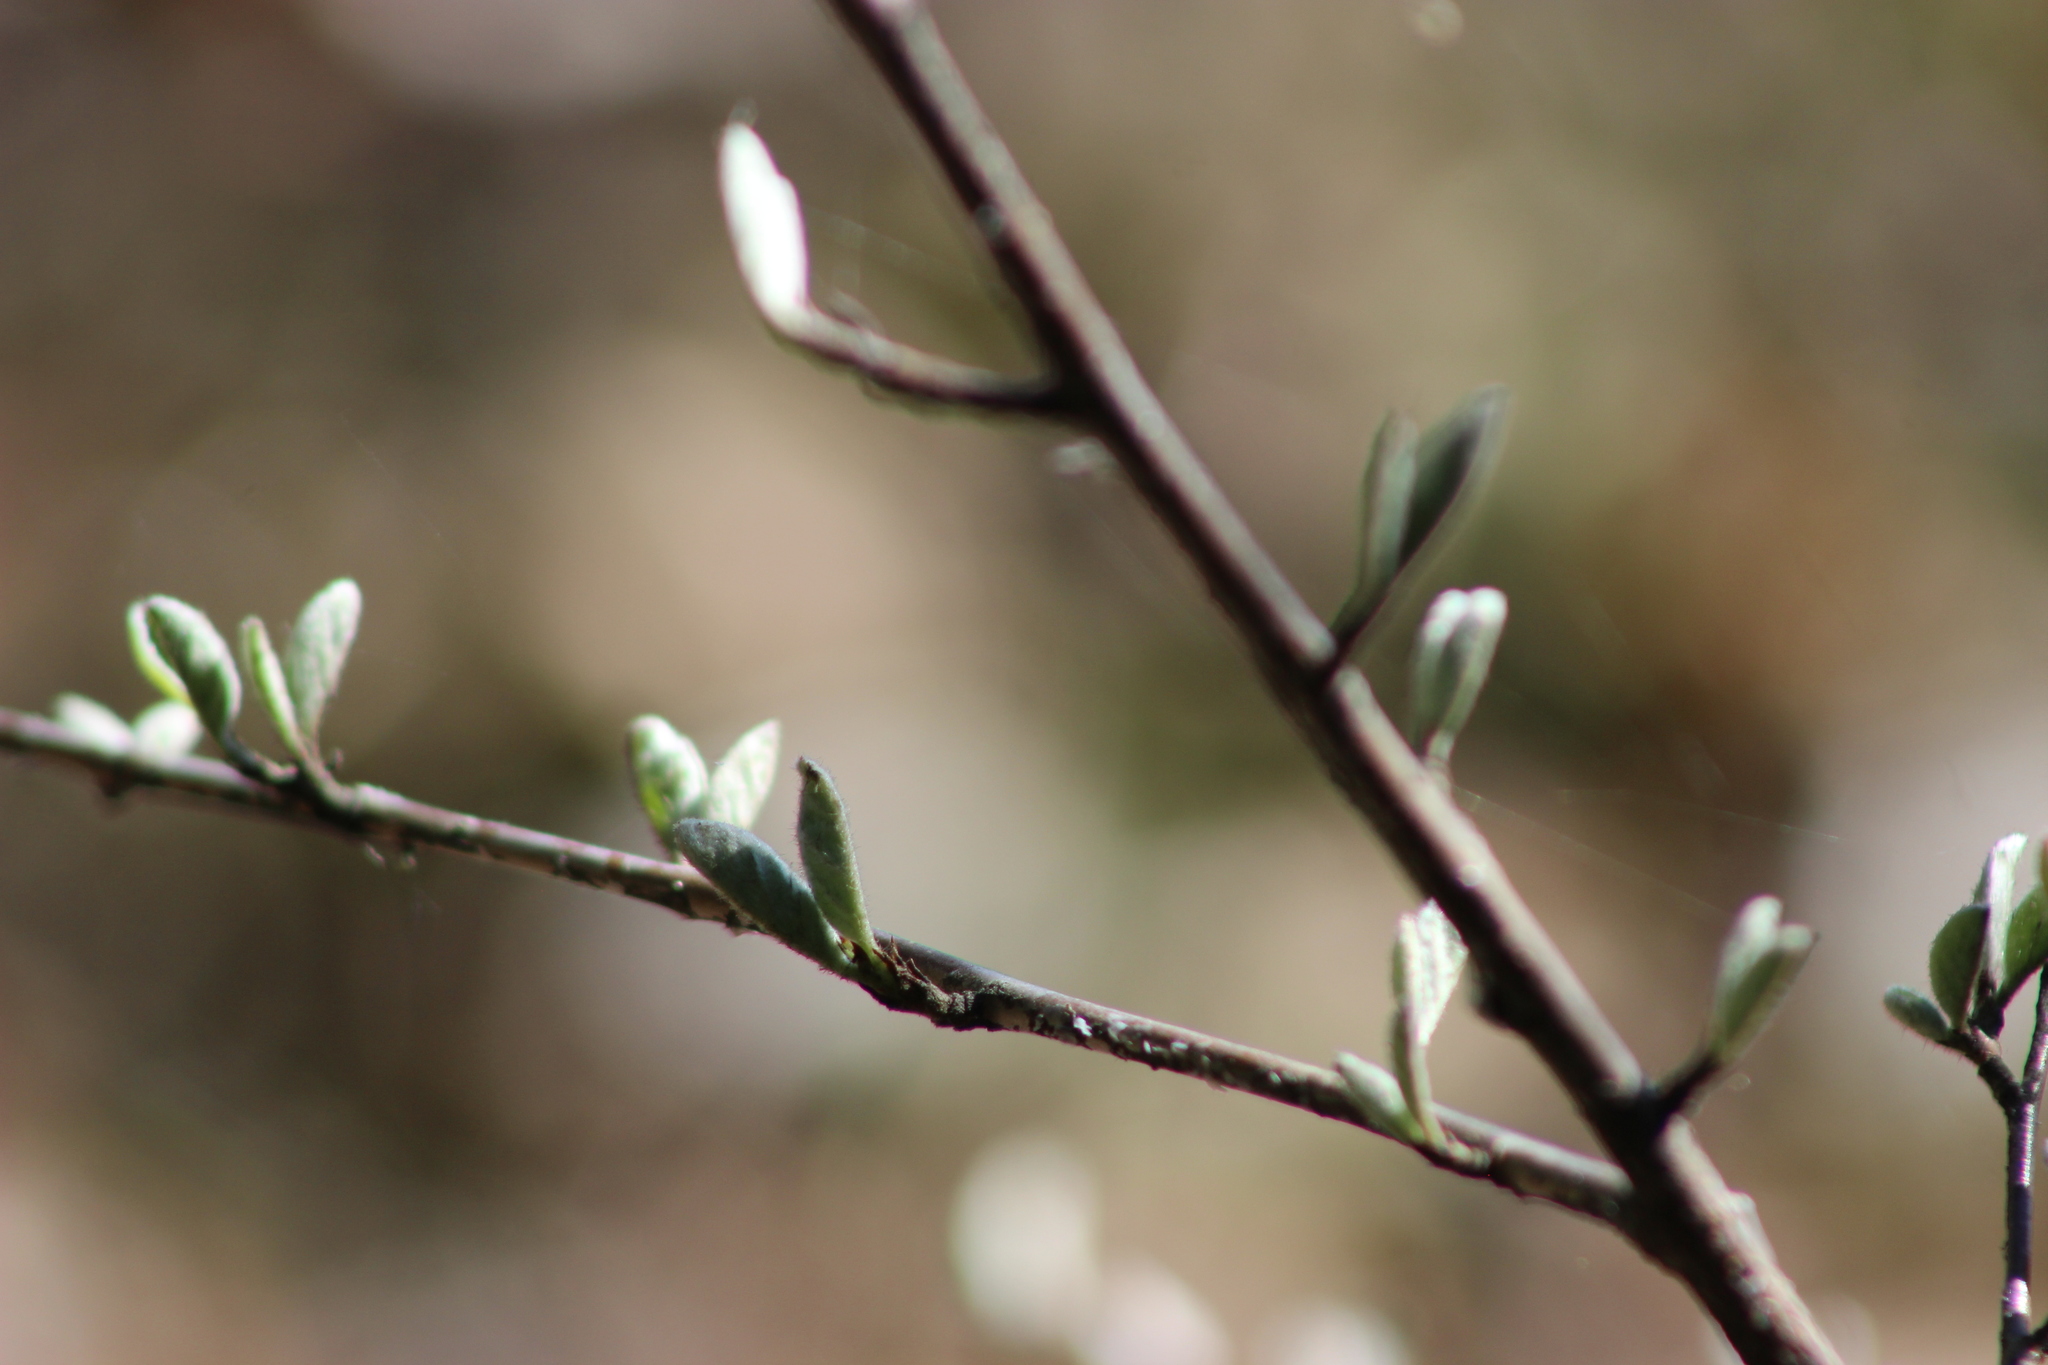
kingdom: Plantae
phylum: Tracheophyta
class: Magnoliopsida
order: Rosales
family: Rosaceae
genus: Cotoneaster
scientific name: Cotoneaster melanocarpus
